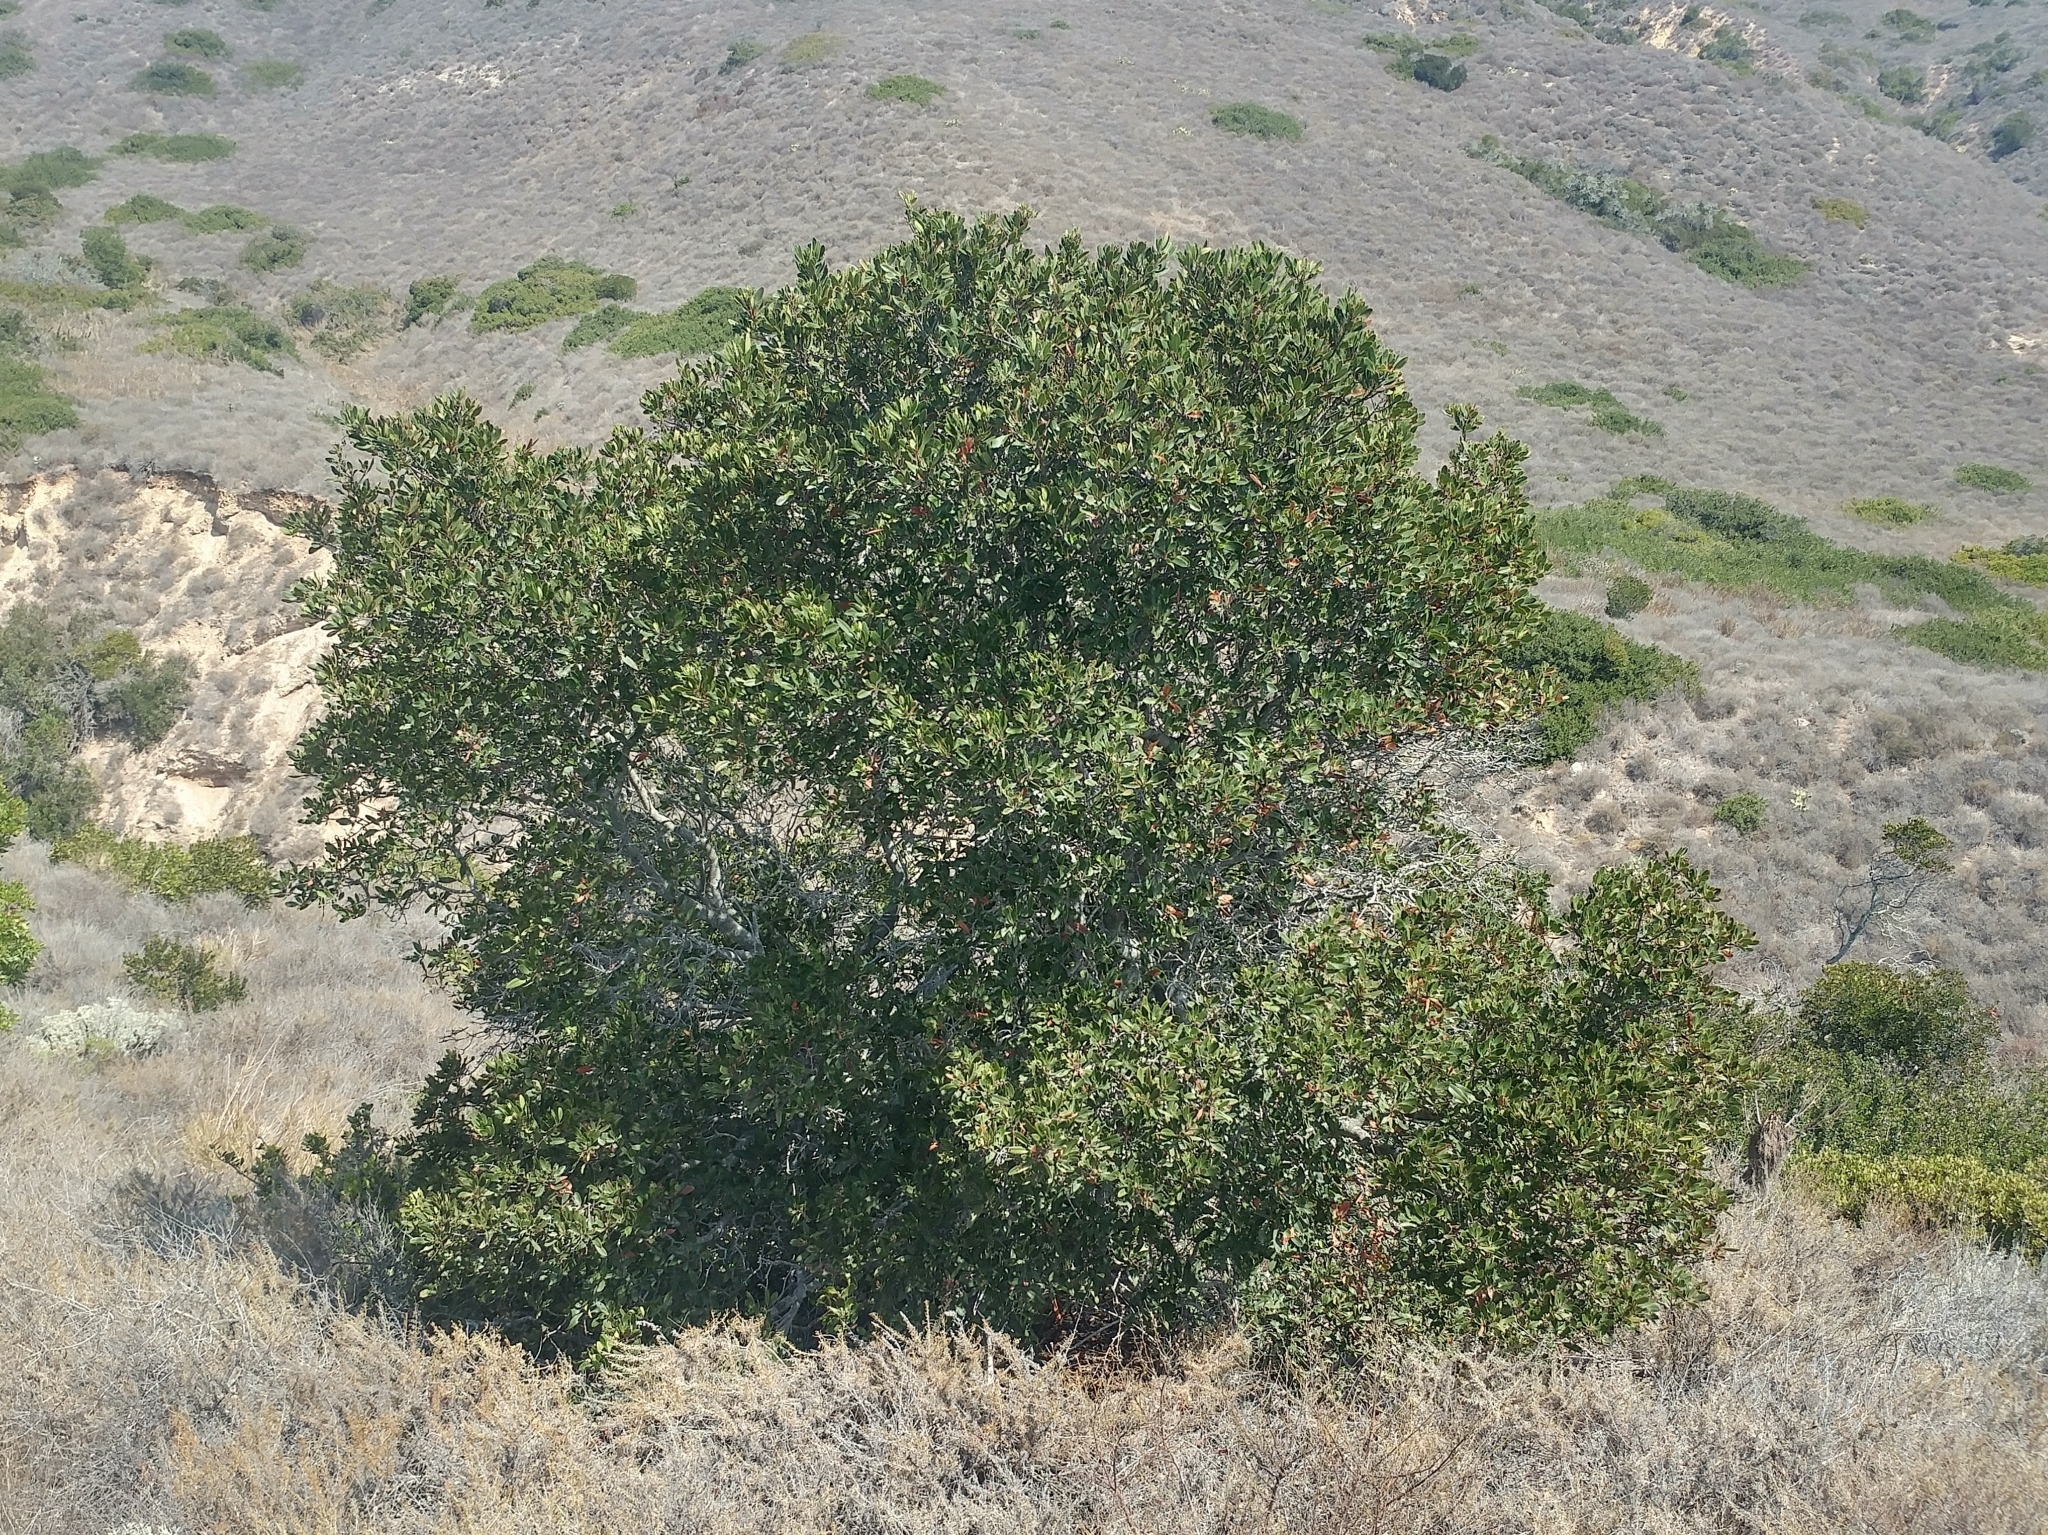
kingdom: Plantae
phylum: Tracheophyta
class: Magnoliopsida
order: Rosales
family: Rosaceae
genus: Heteromeles
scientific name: Heteromeles arbutifolia
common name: California-holly
